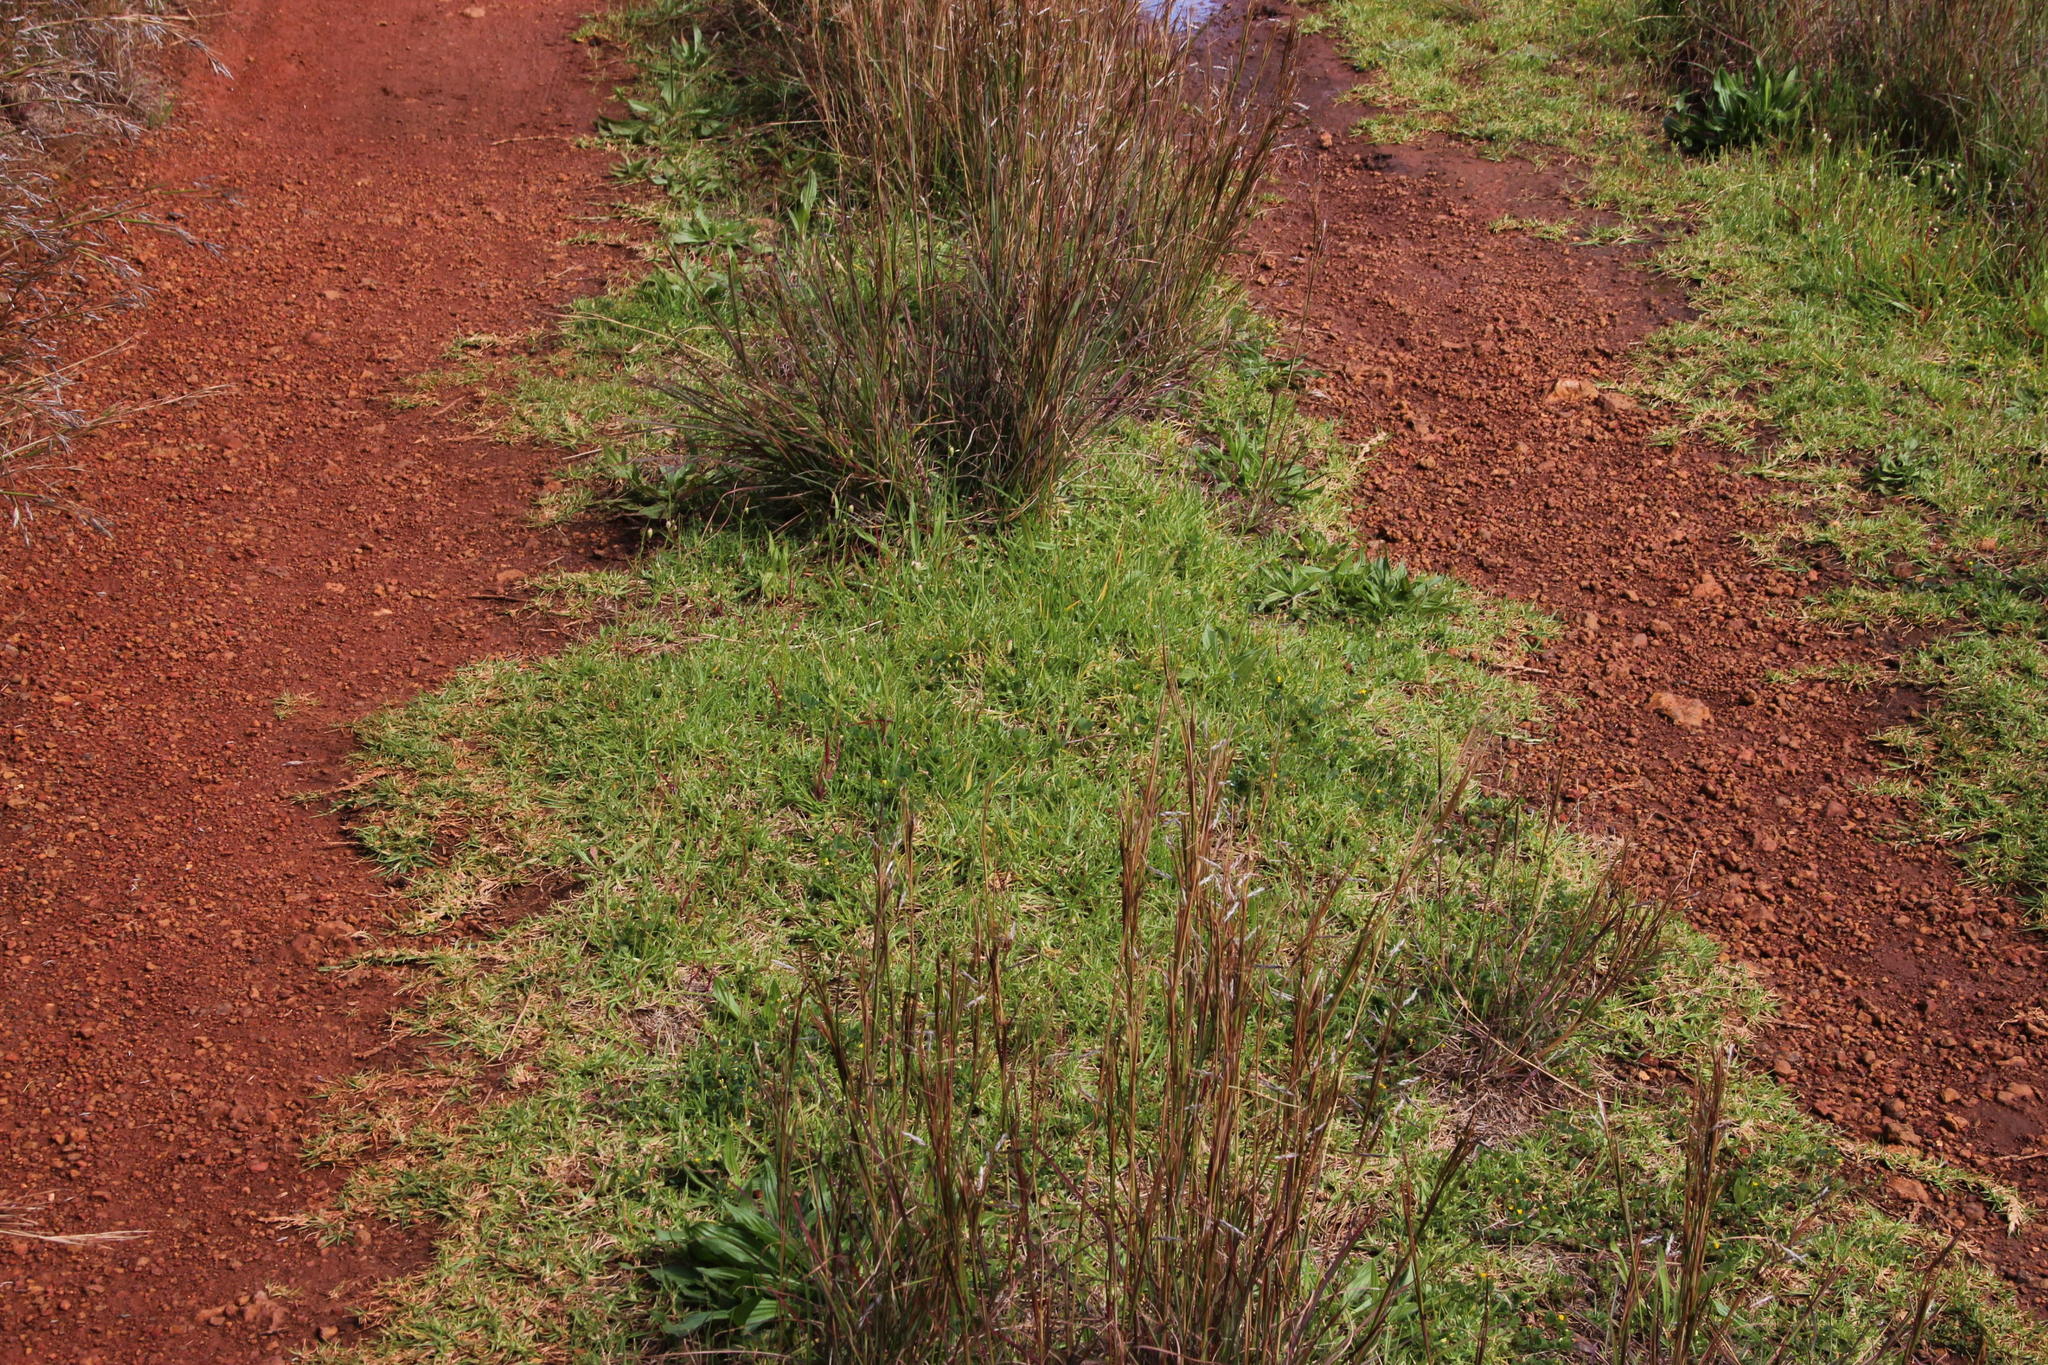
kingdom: Plantae
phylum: Tracheophyta
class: Liliopsida
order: Poales
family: Poaceae
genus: Cenchrus
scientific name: Cenchrus clandestinus
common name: Kikuyugrass
